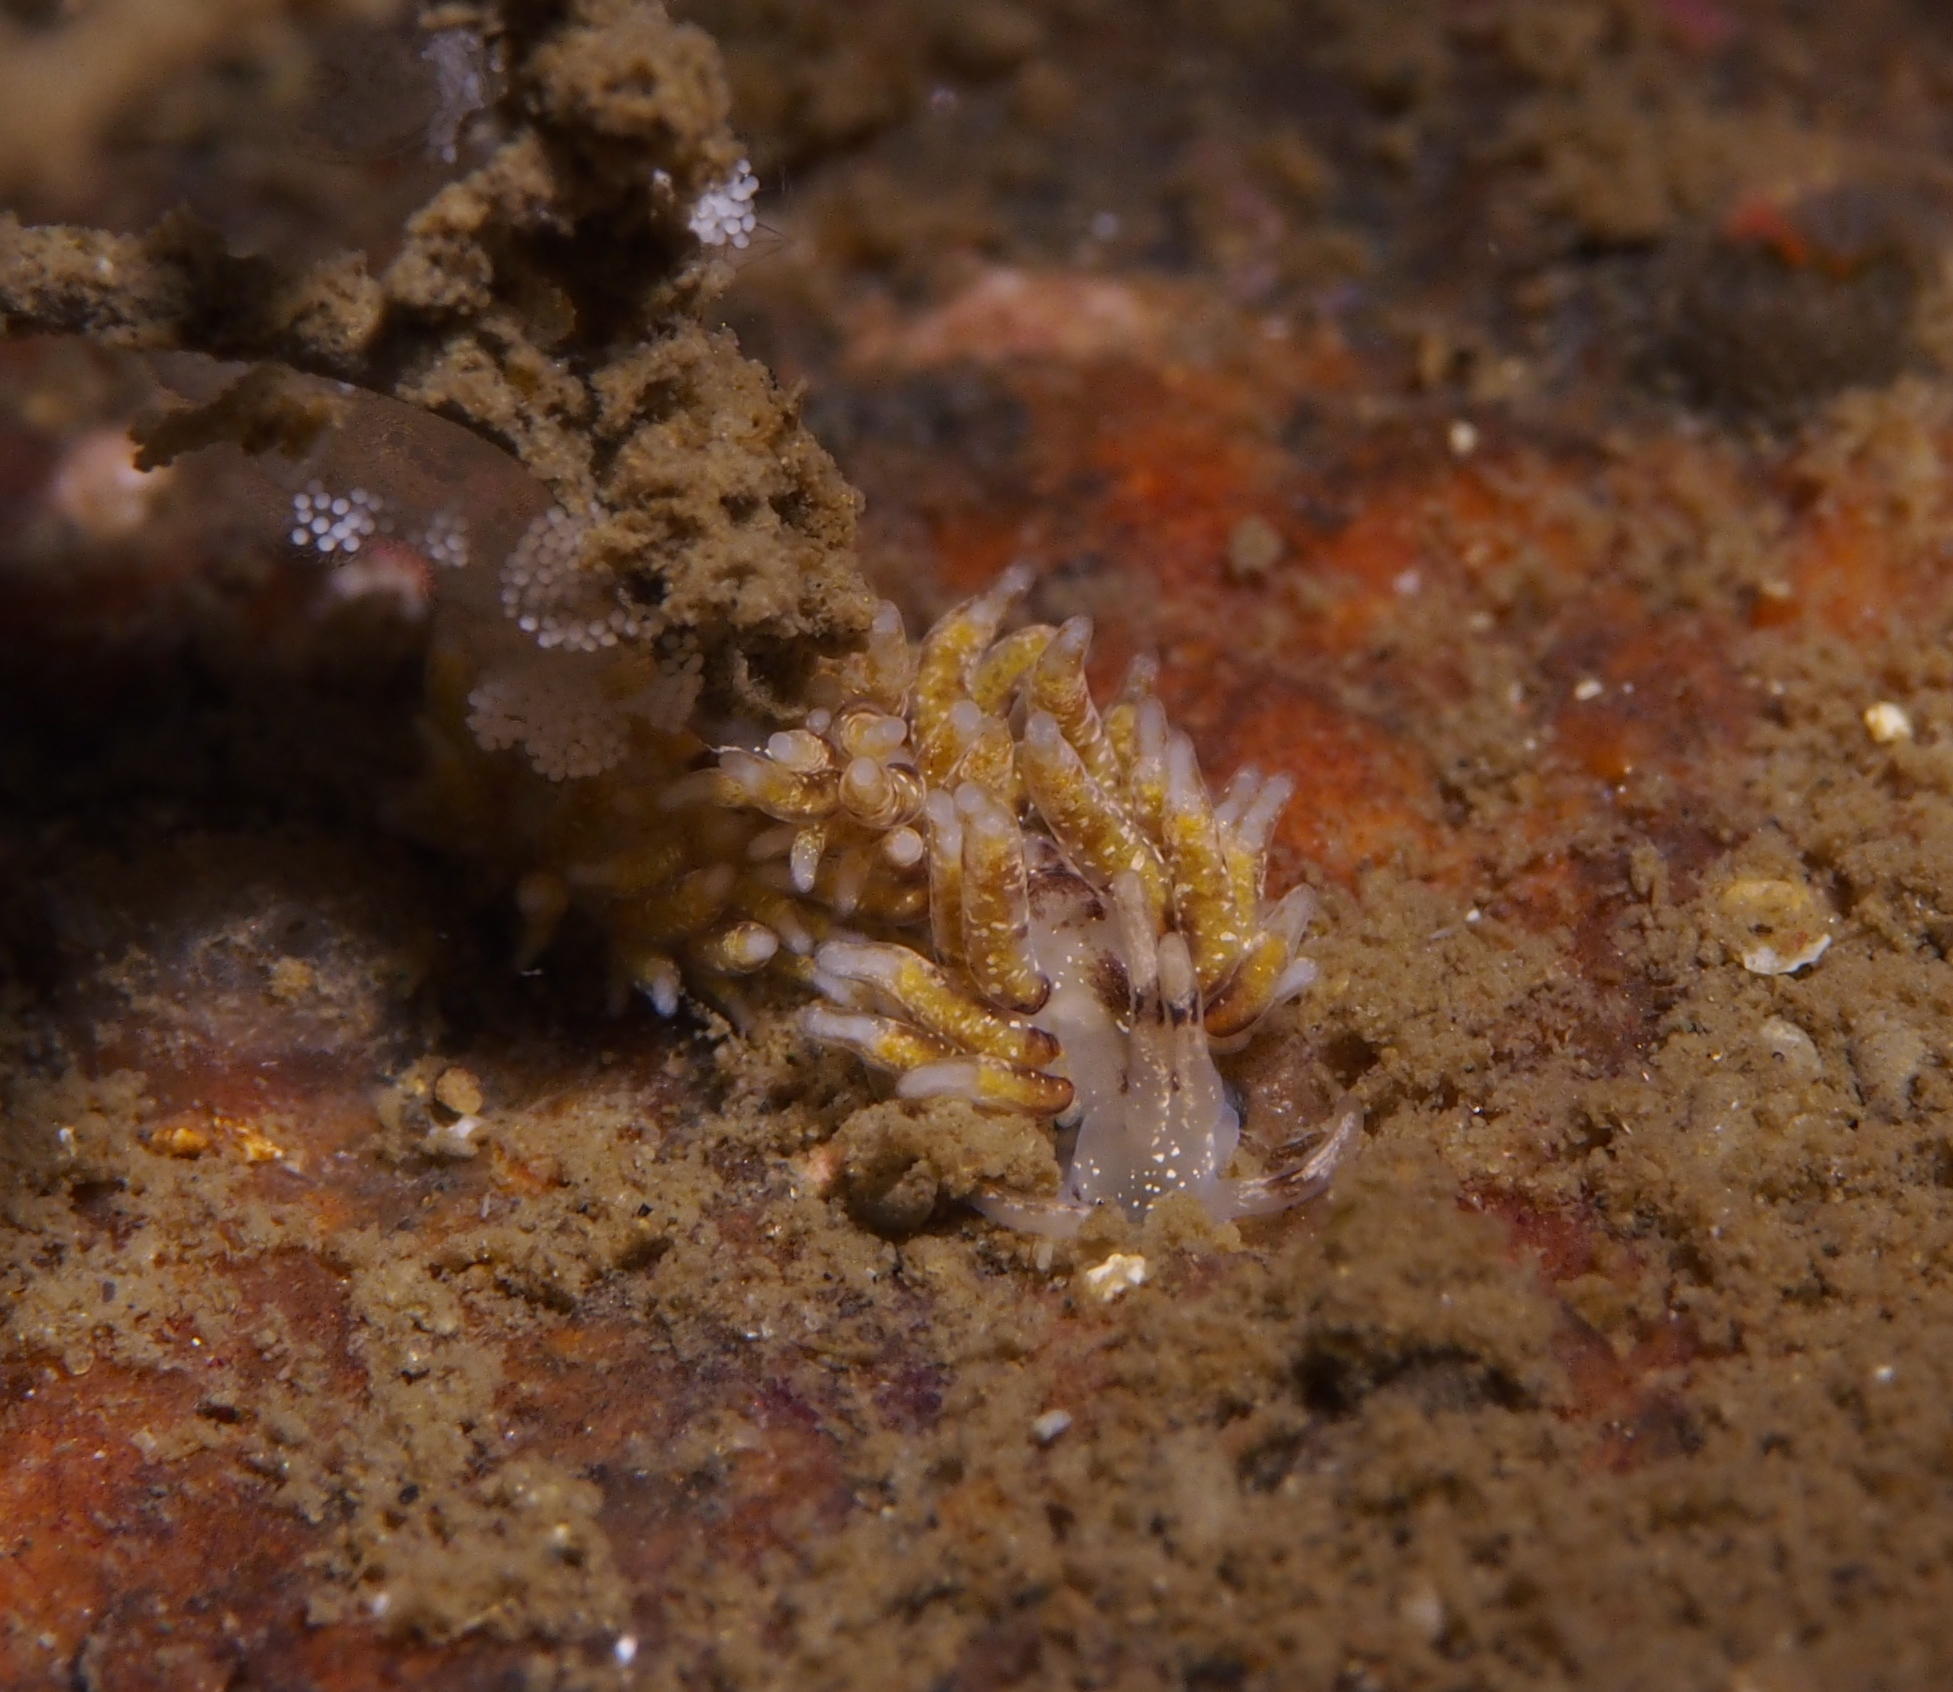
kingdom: Animalia
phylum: Mollusca
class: Gastropoda
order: Nudibranchia
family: Trinchesiidae
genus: Rubramoena
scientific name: Rubramoena rubescens
